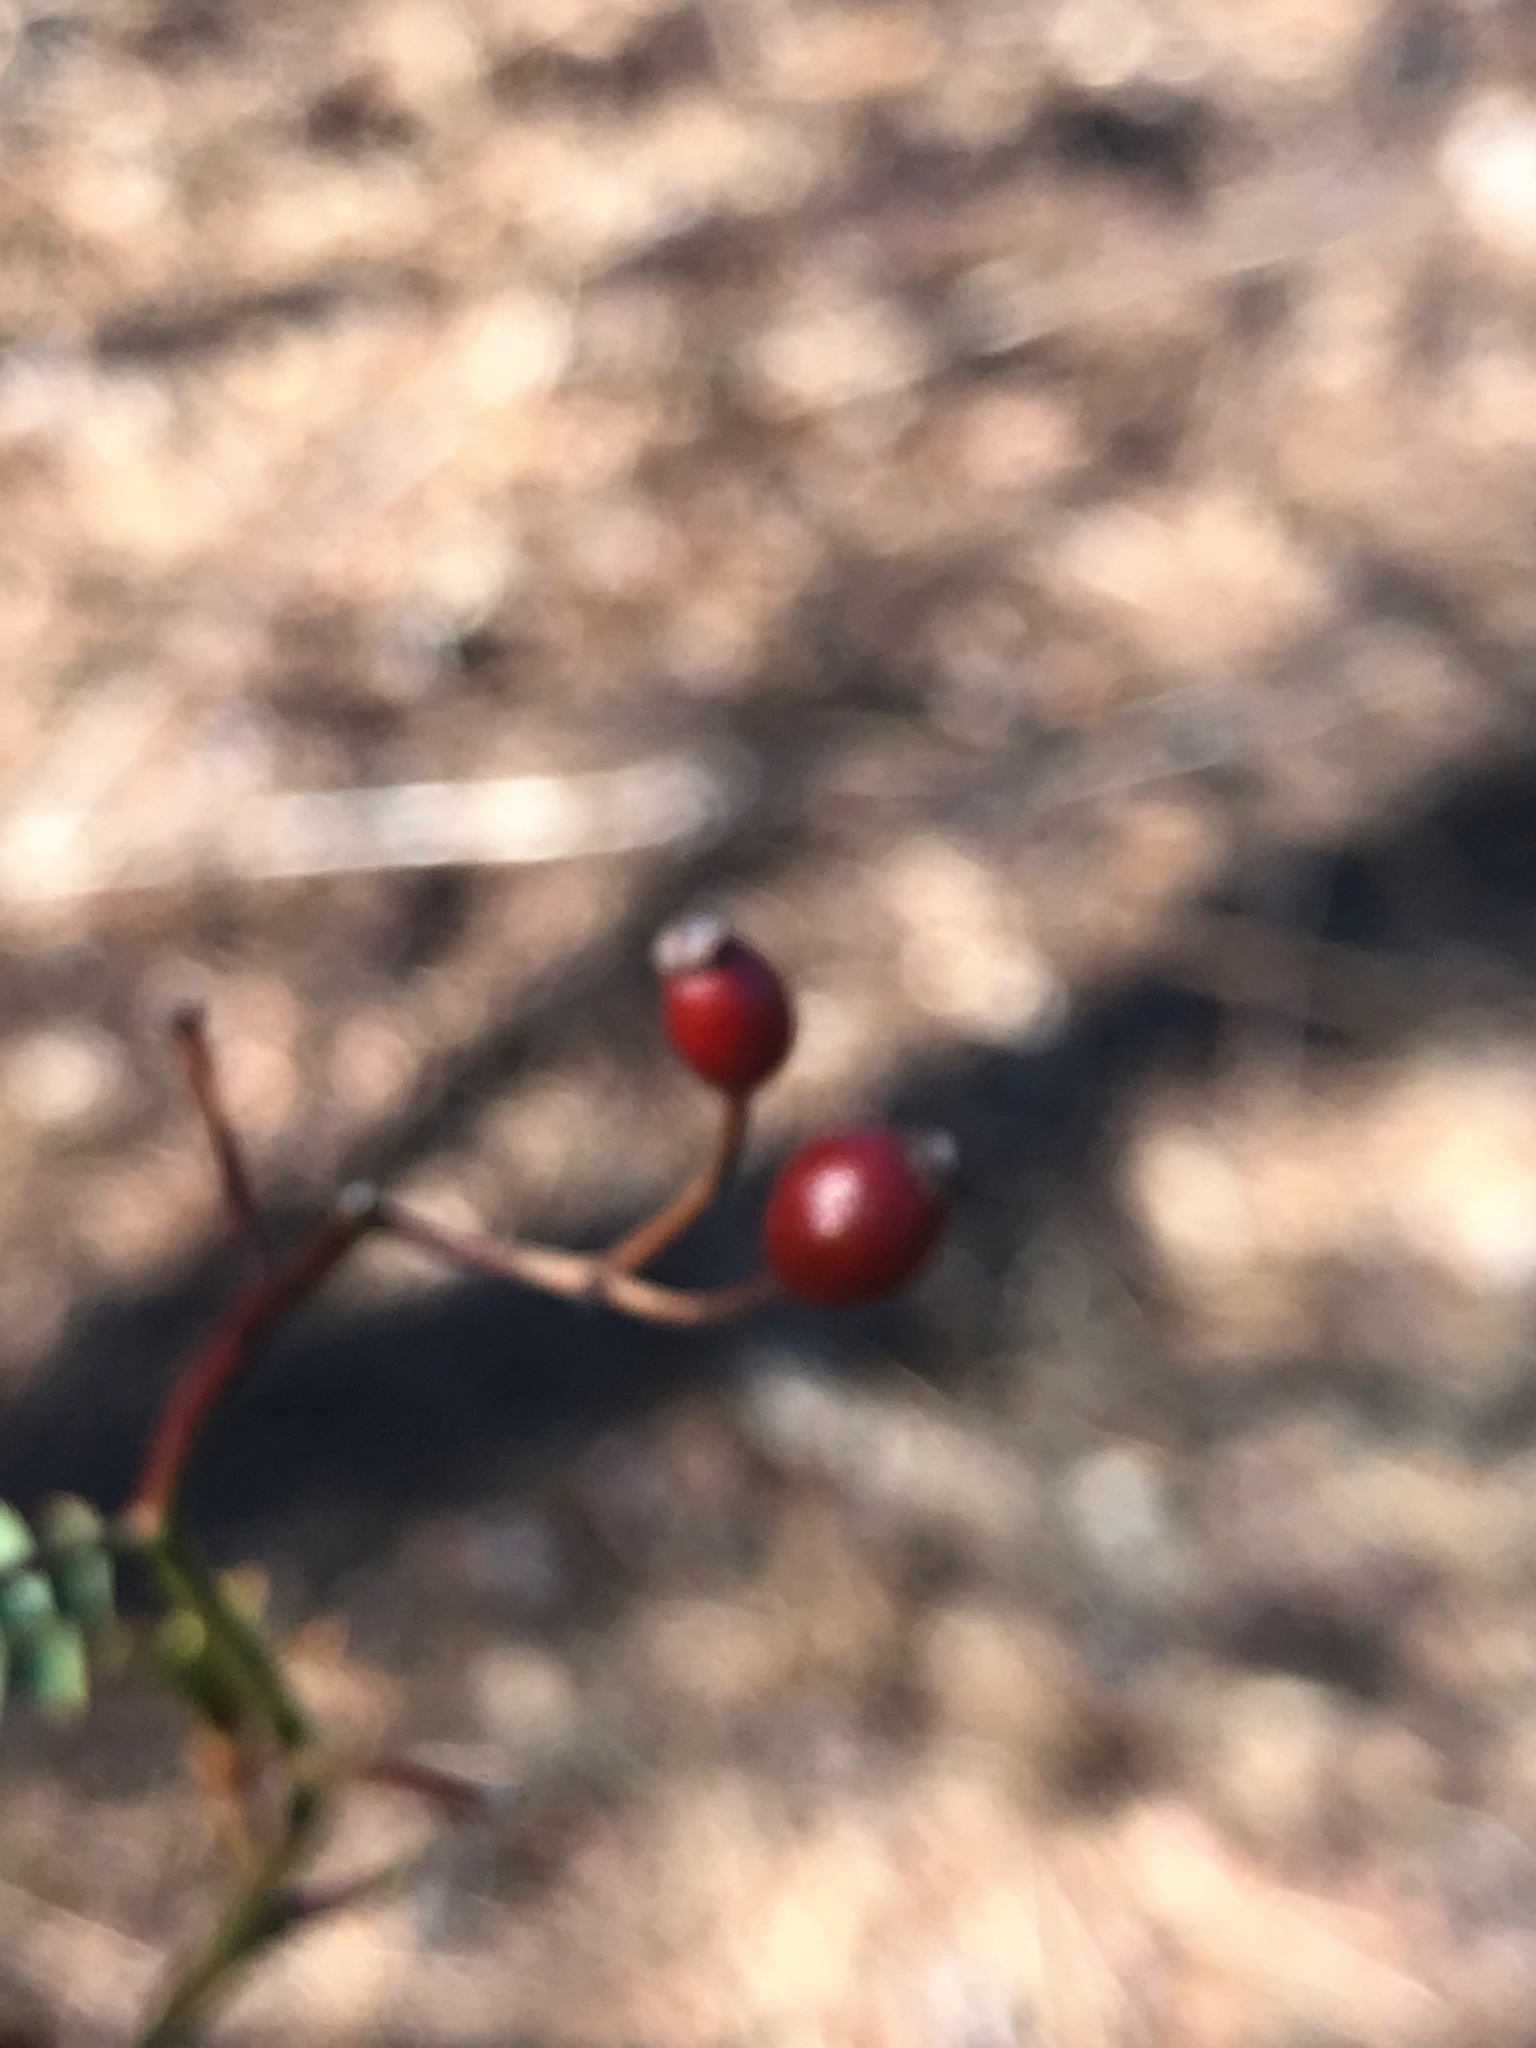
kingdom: Plantae
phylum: Tracheophyta
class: Magnoliopsida
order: Rosales
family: Rosaceae
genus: Rosa
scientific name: Rosa multiflora
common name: Multiflora rose
